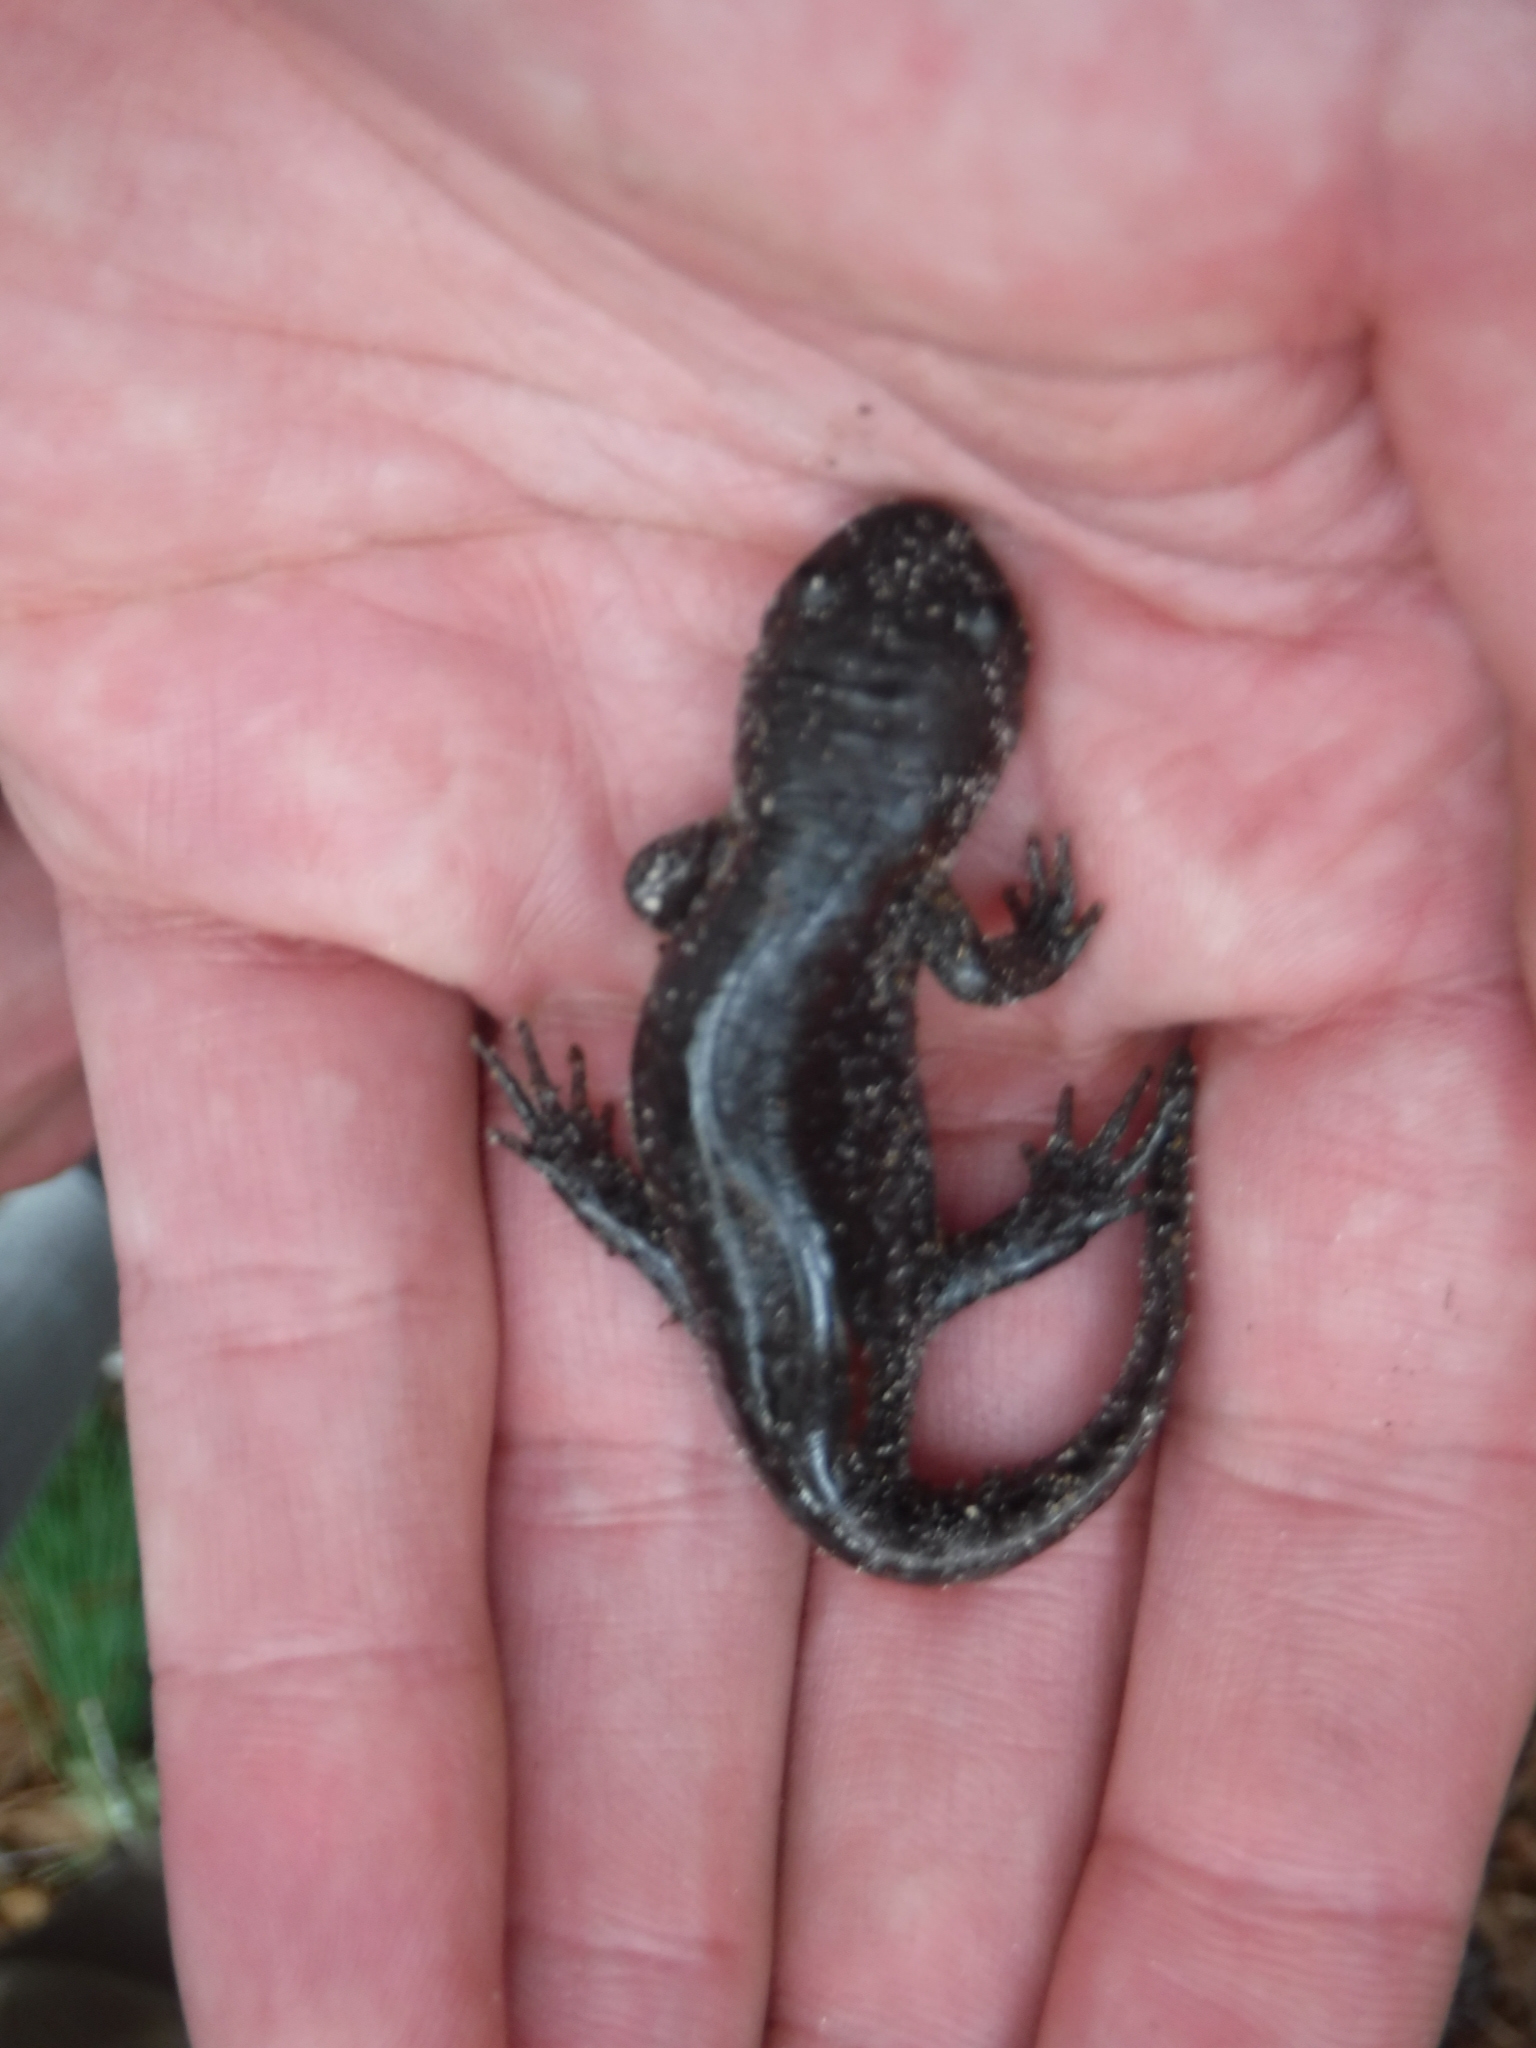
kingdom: Animalia
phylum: Chordata
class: Amphibia
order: Caudata
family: Ambystomatidae
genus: Ambystoma
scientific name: Ambystoma talpoideum
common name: Mole salamander
